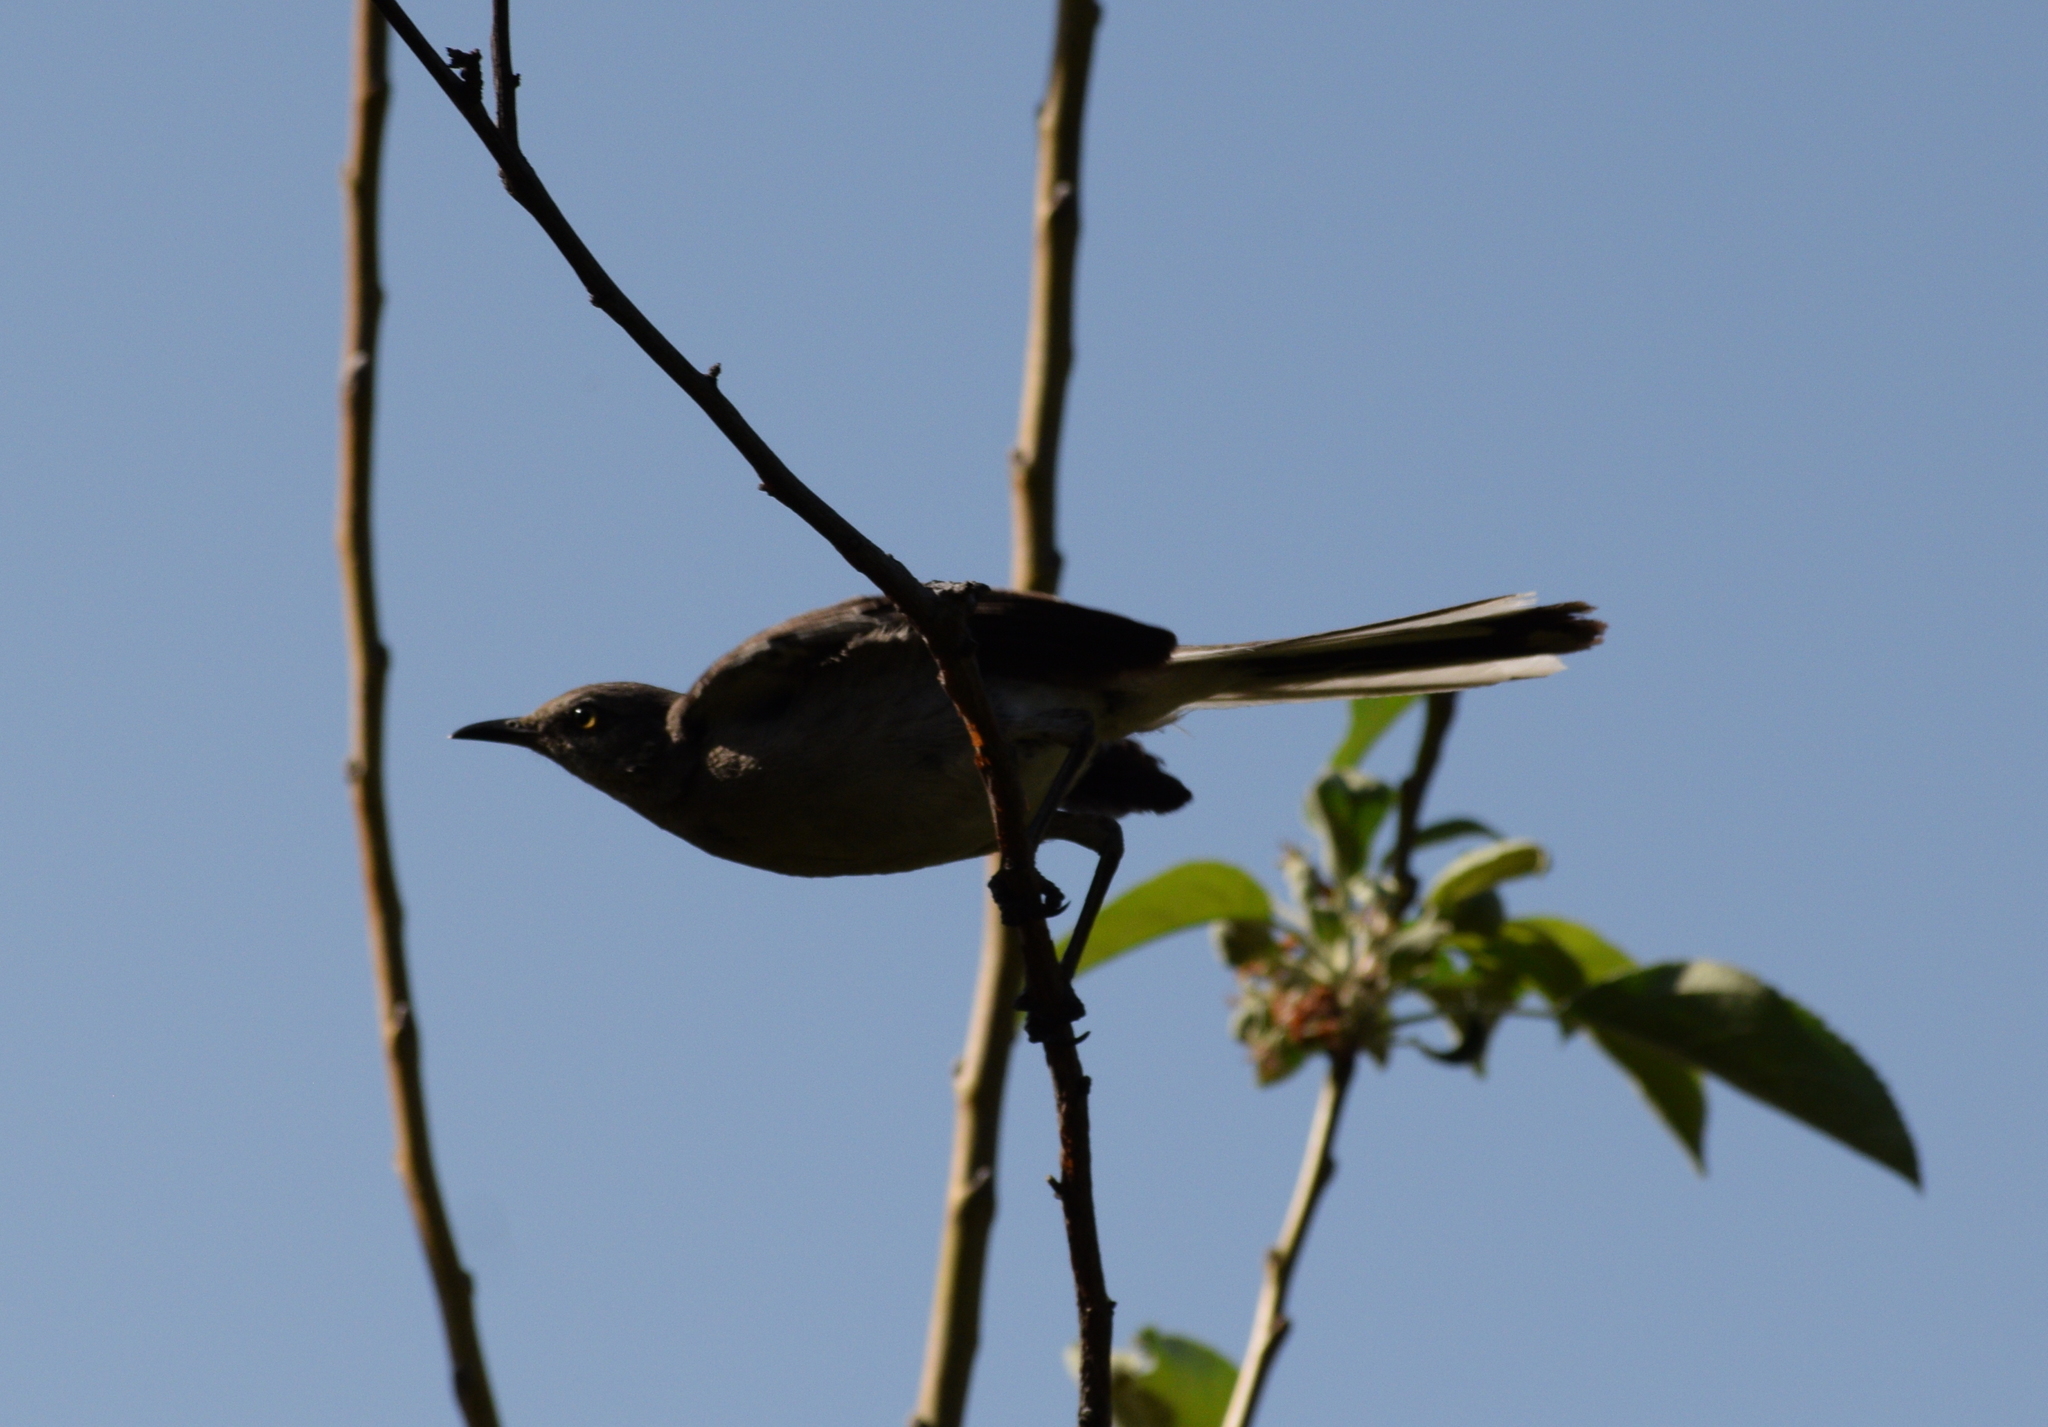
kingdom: Animalia
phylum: Chordata
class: Aves
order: Passeriformes
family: Mimidae
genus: Mimus
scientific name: Mimus polyglottos
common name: Northern mockingbird
